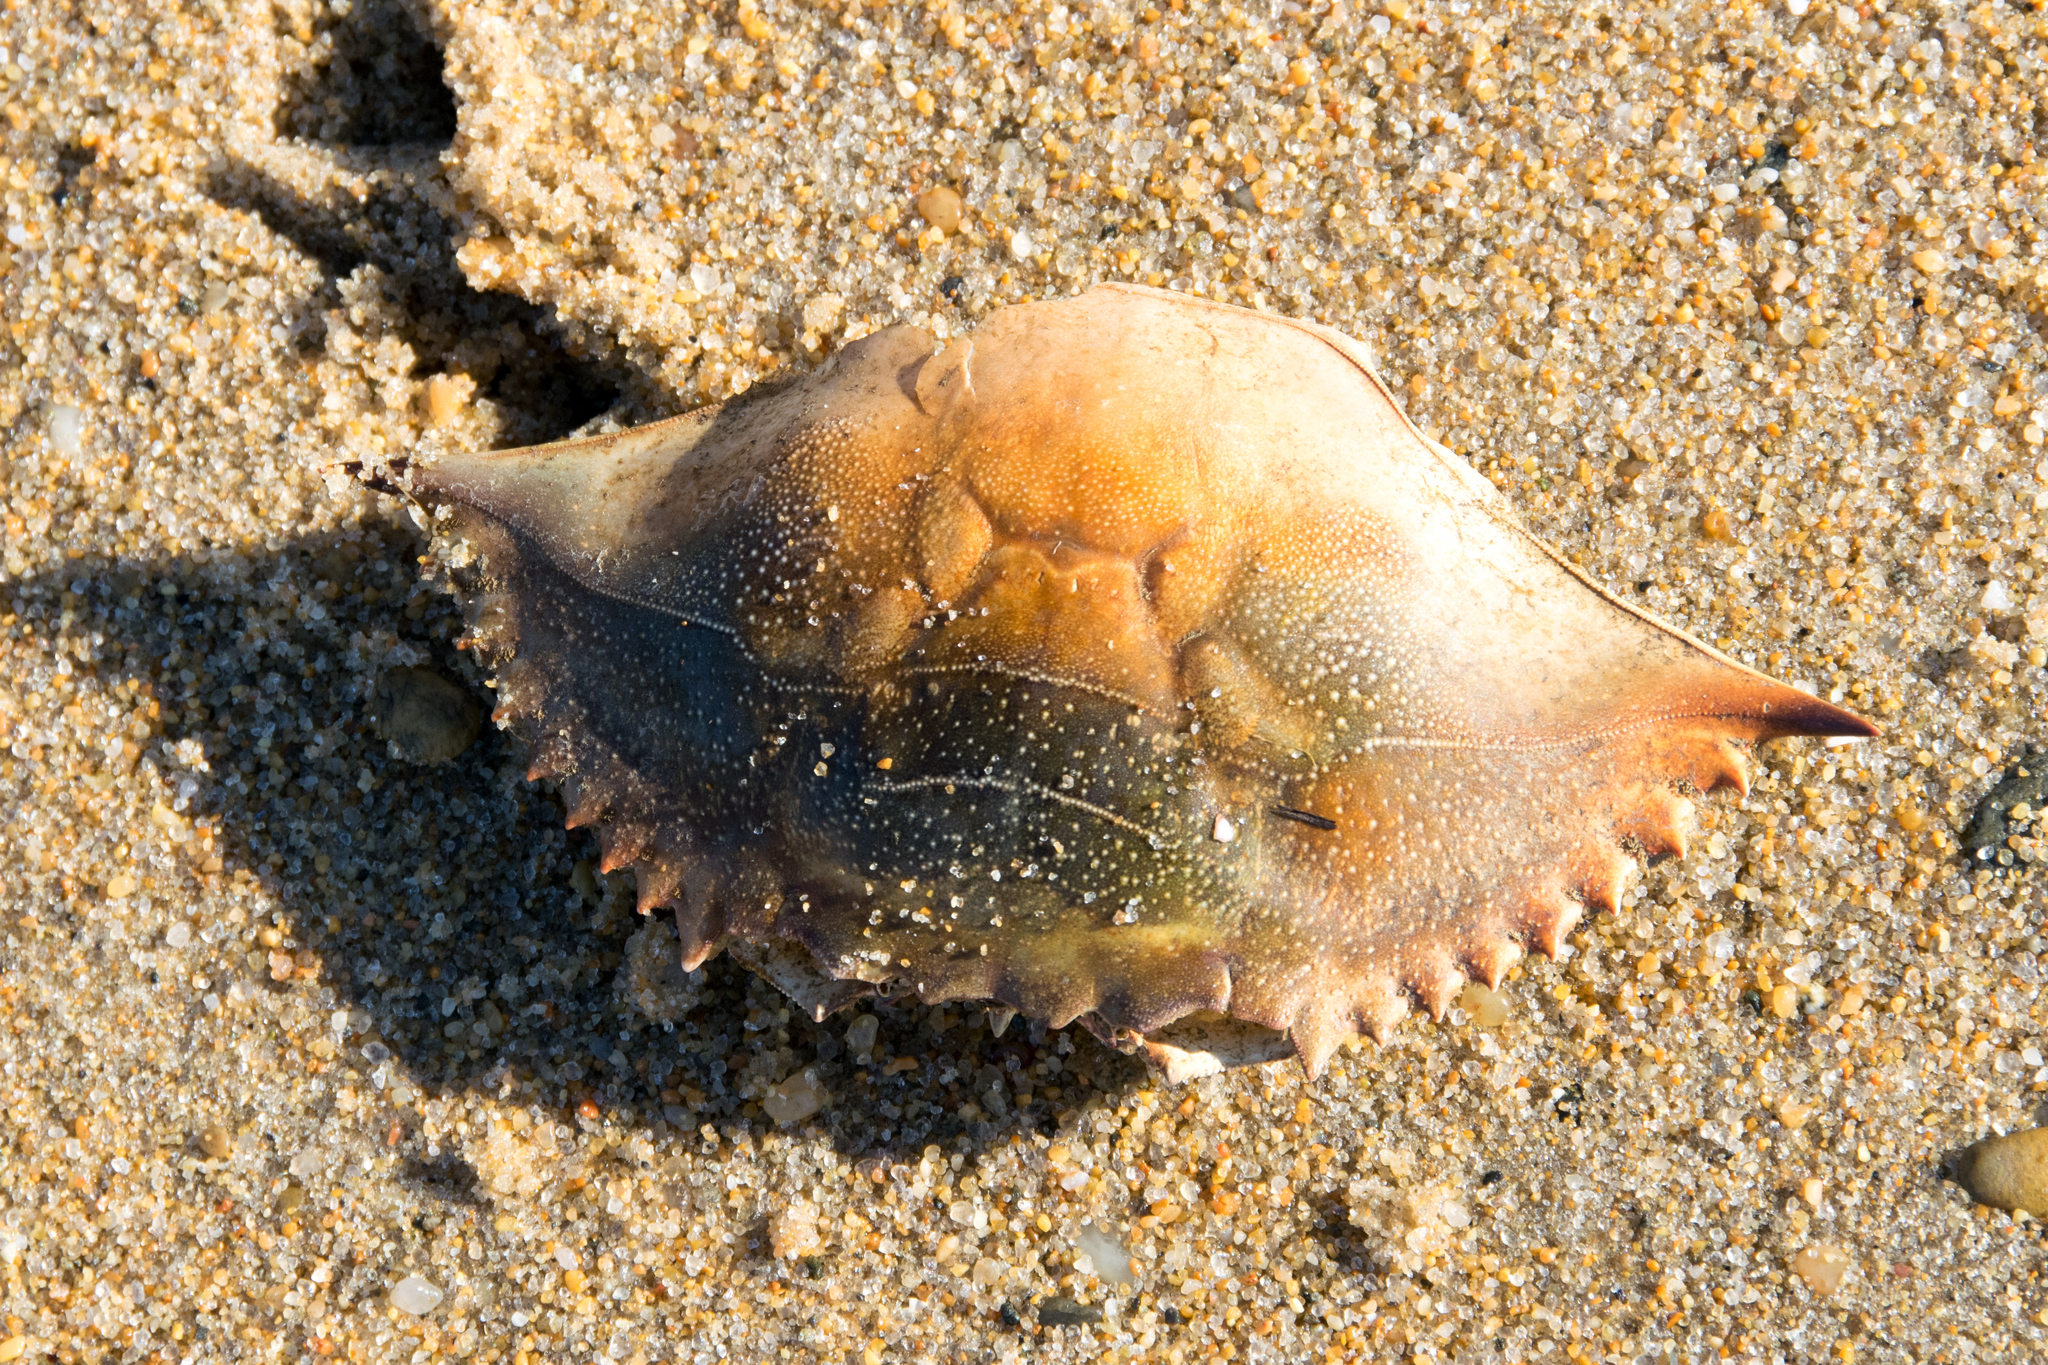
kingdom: Animalia
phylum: Arthropoda
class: Malacostraca
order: Decapoda
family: Portunidae
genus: Callinectes
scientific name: Callinectes sapidus
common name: Blue crab
